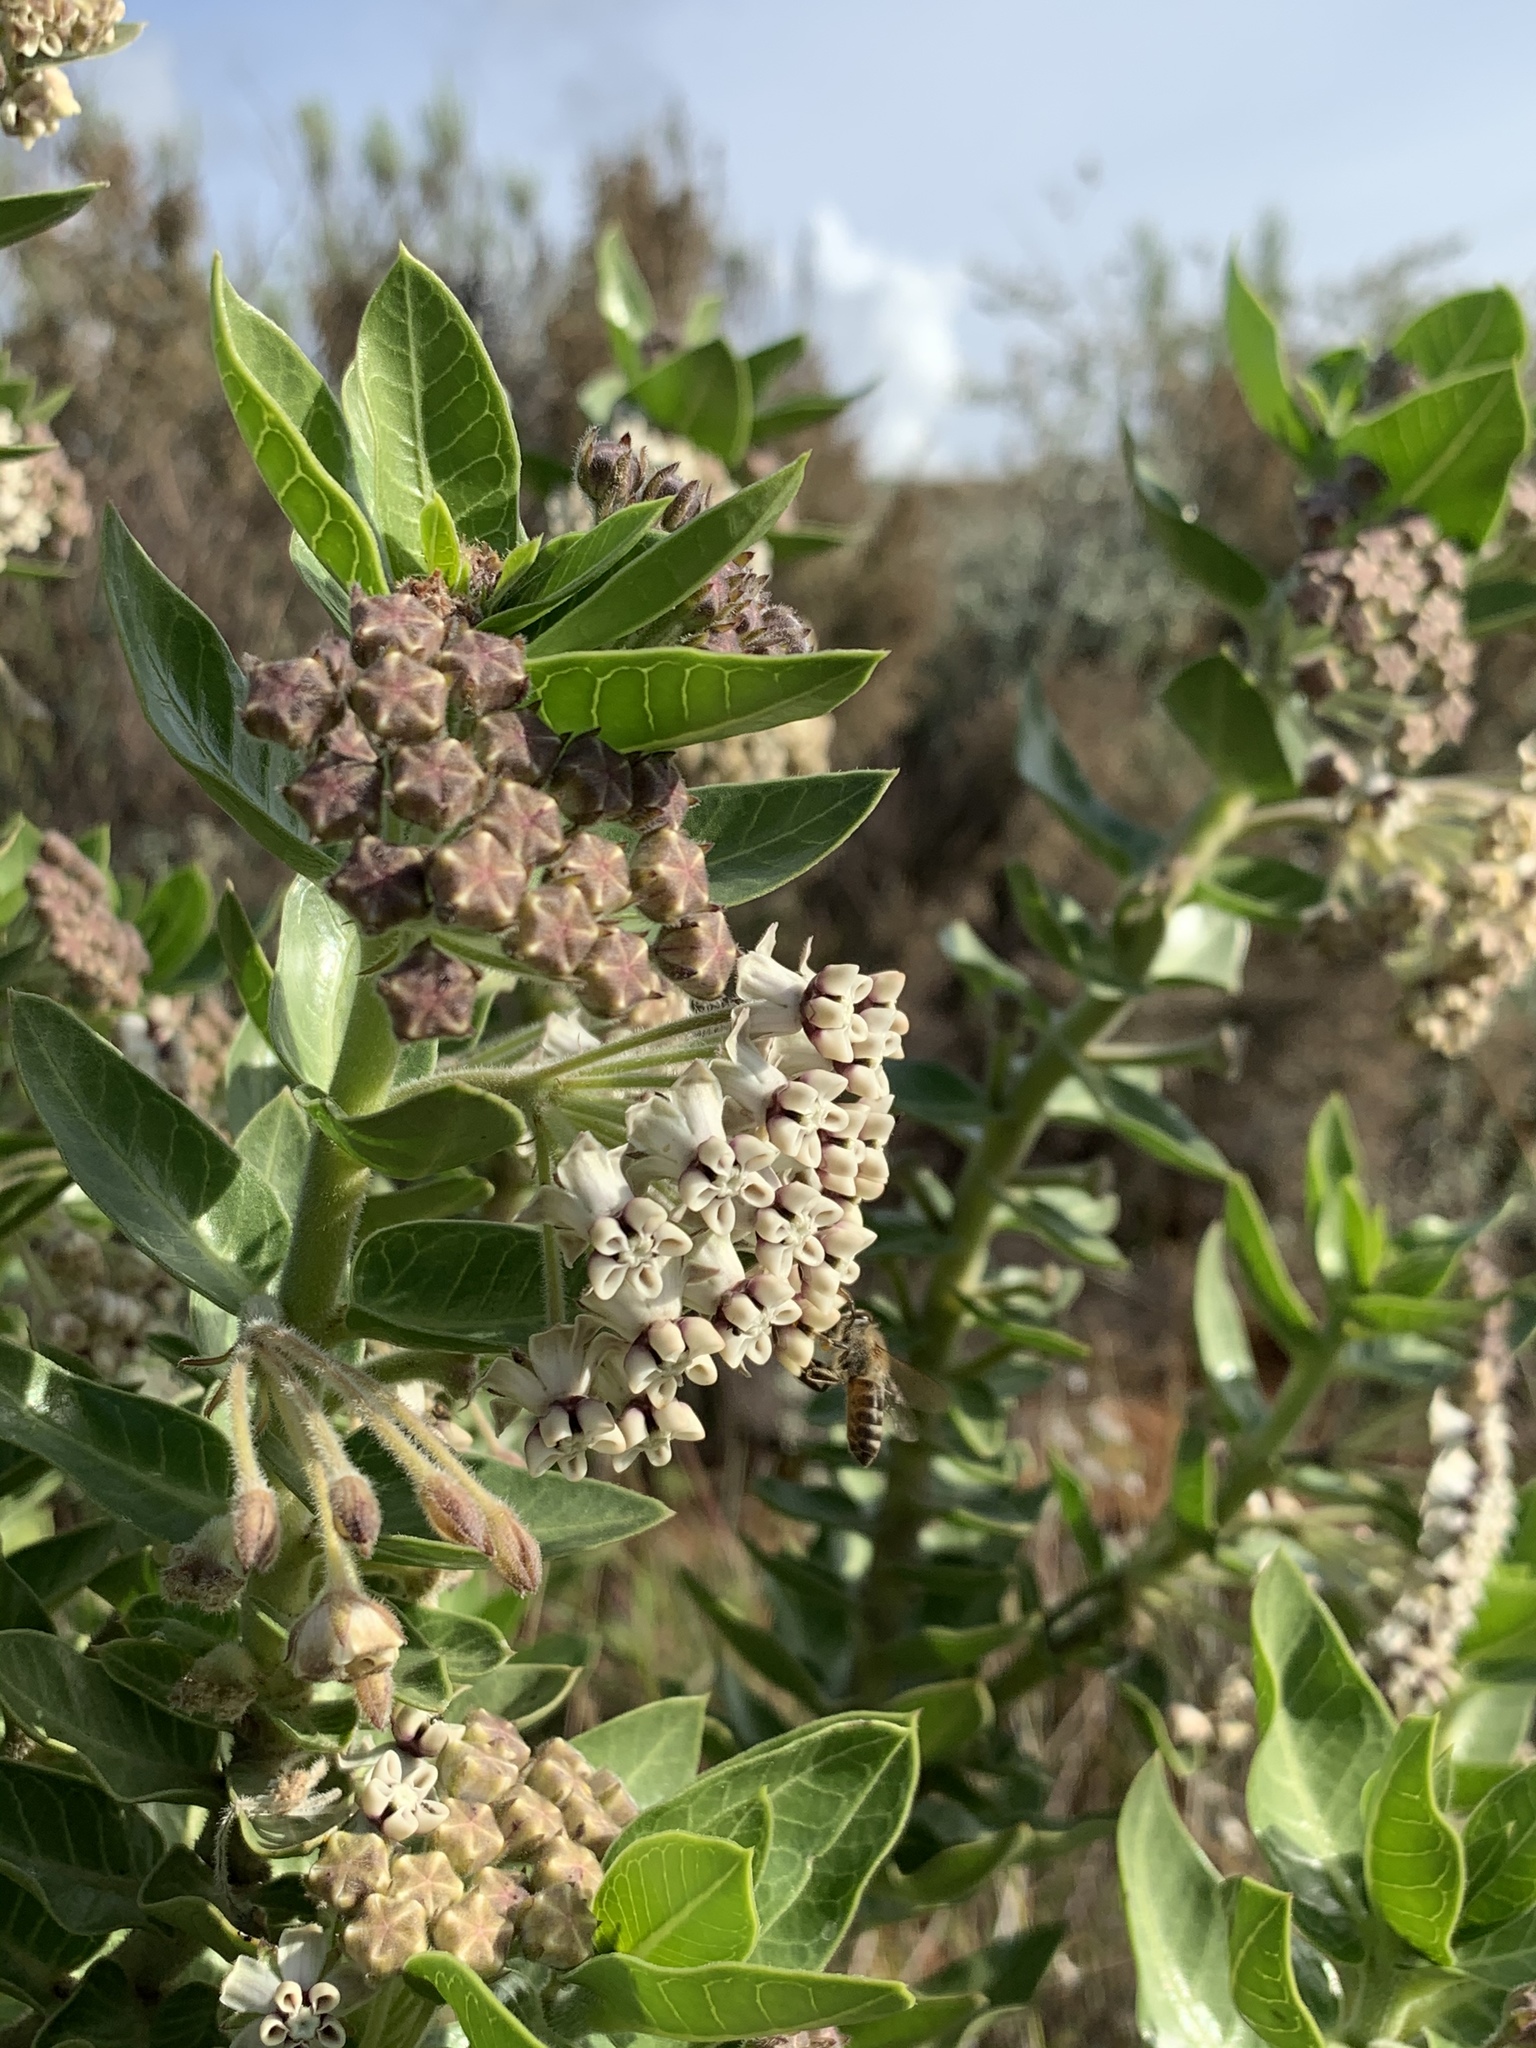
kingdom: Plantae
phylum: Tracheophyta
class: Magnoliopsida
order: Gentianales
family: Apocynaceae
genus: Gomphocarpus
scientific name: Gomphocarpus cancellatus
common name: Wild cotton
